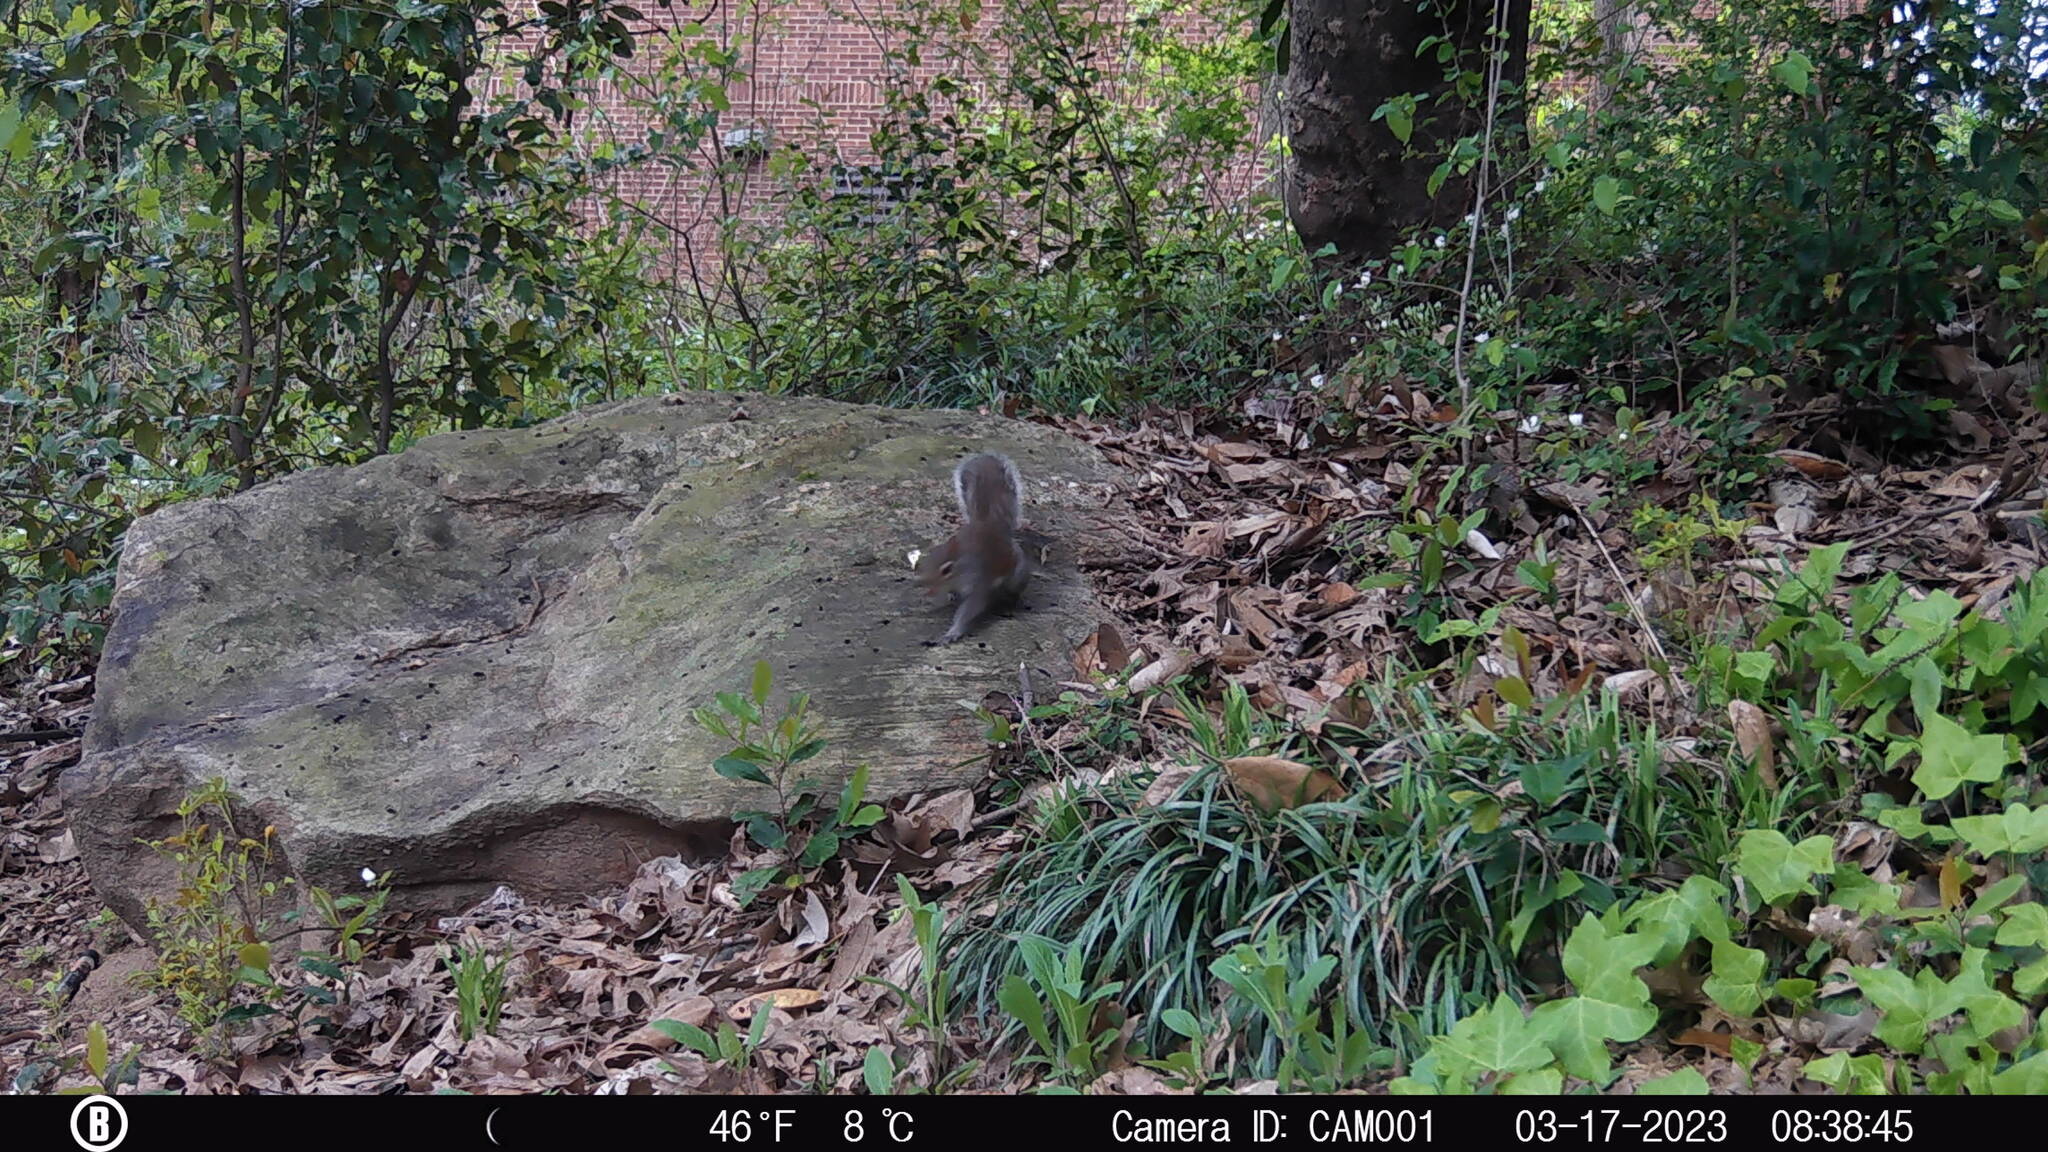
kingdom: Animalia
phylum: Chordata
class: Mammalia
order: Rodentia
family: Sciuridae
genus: Sciurus
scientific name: Sciurus carolinensis
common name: Eastern gray squirrel
